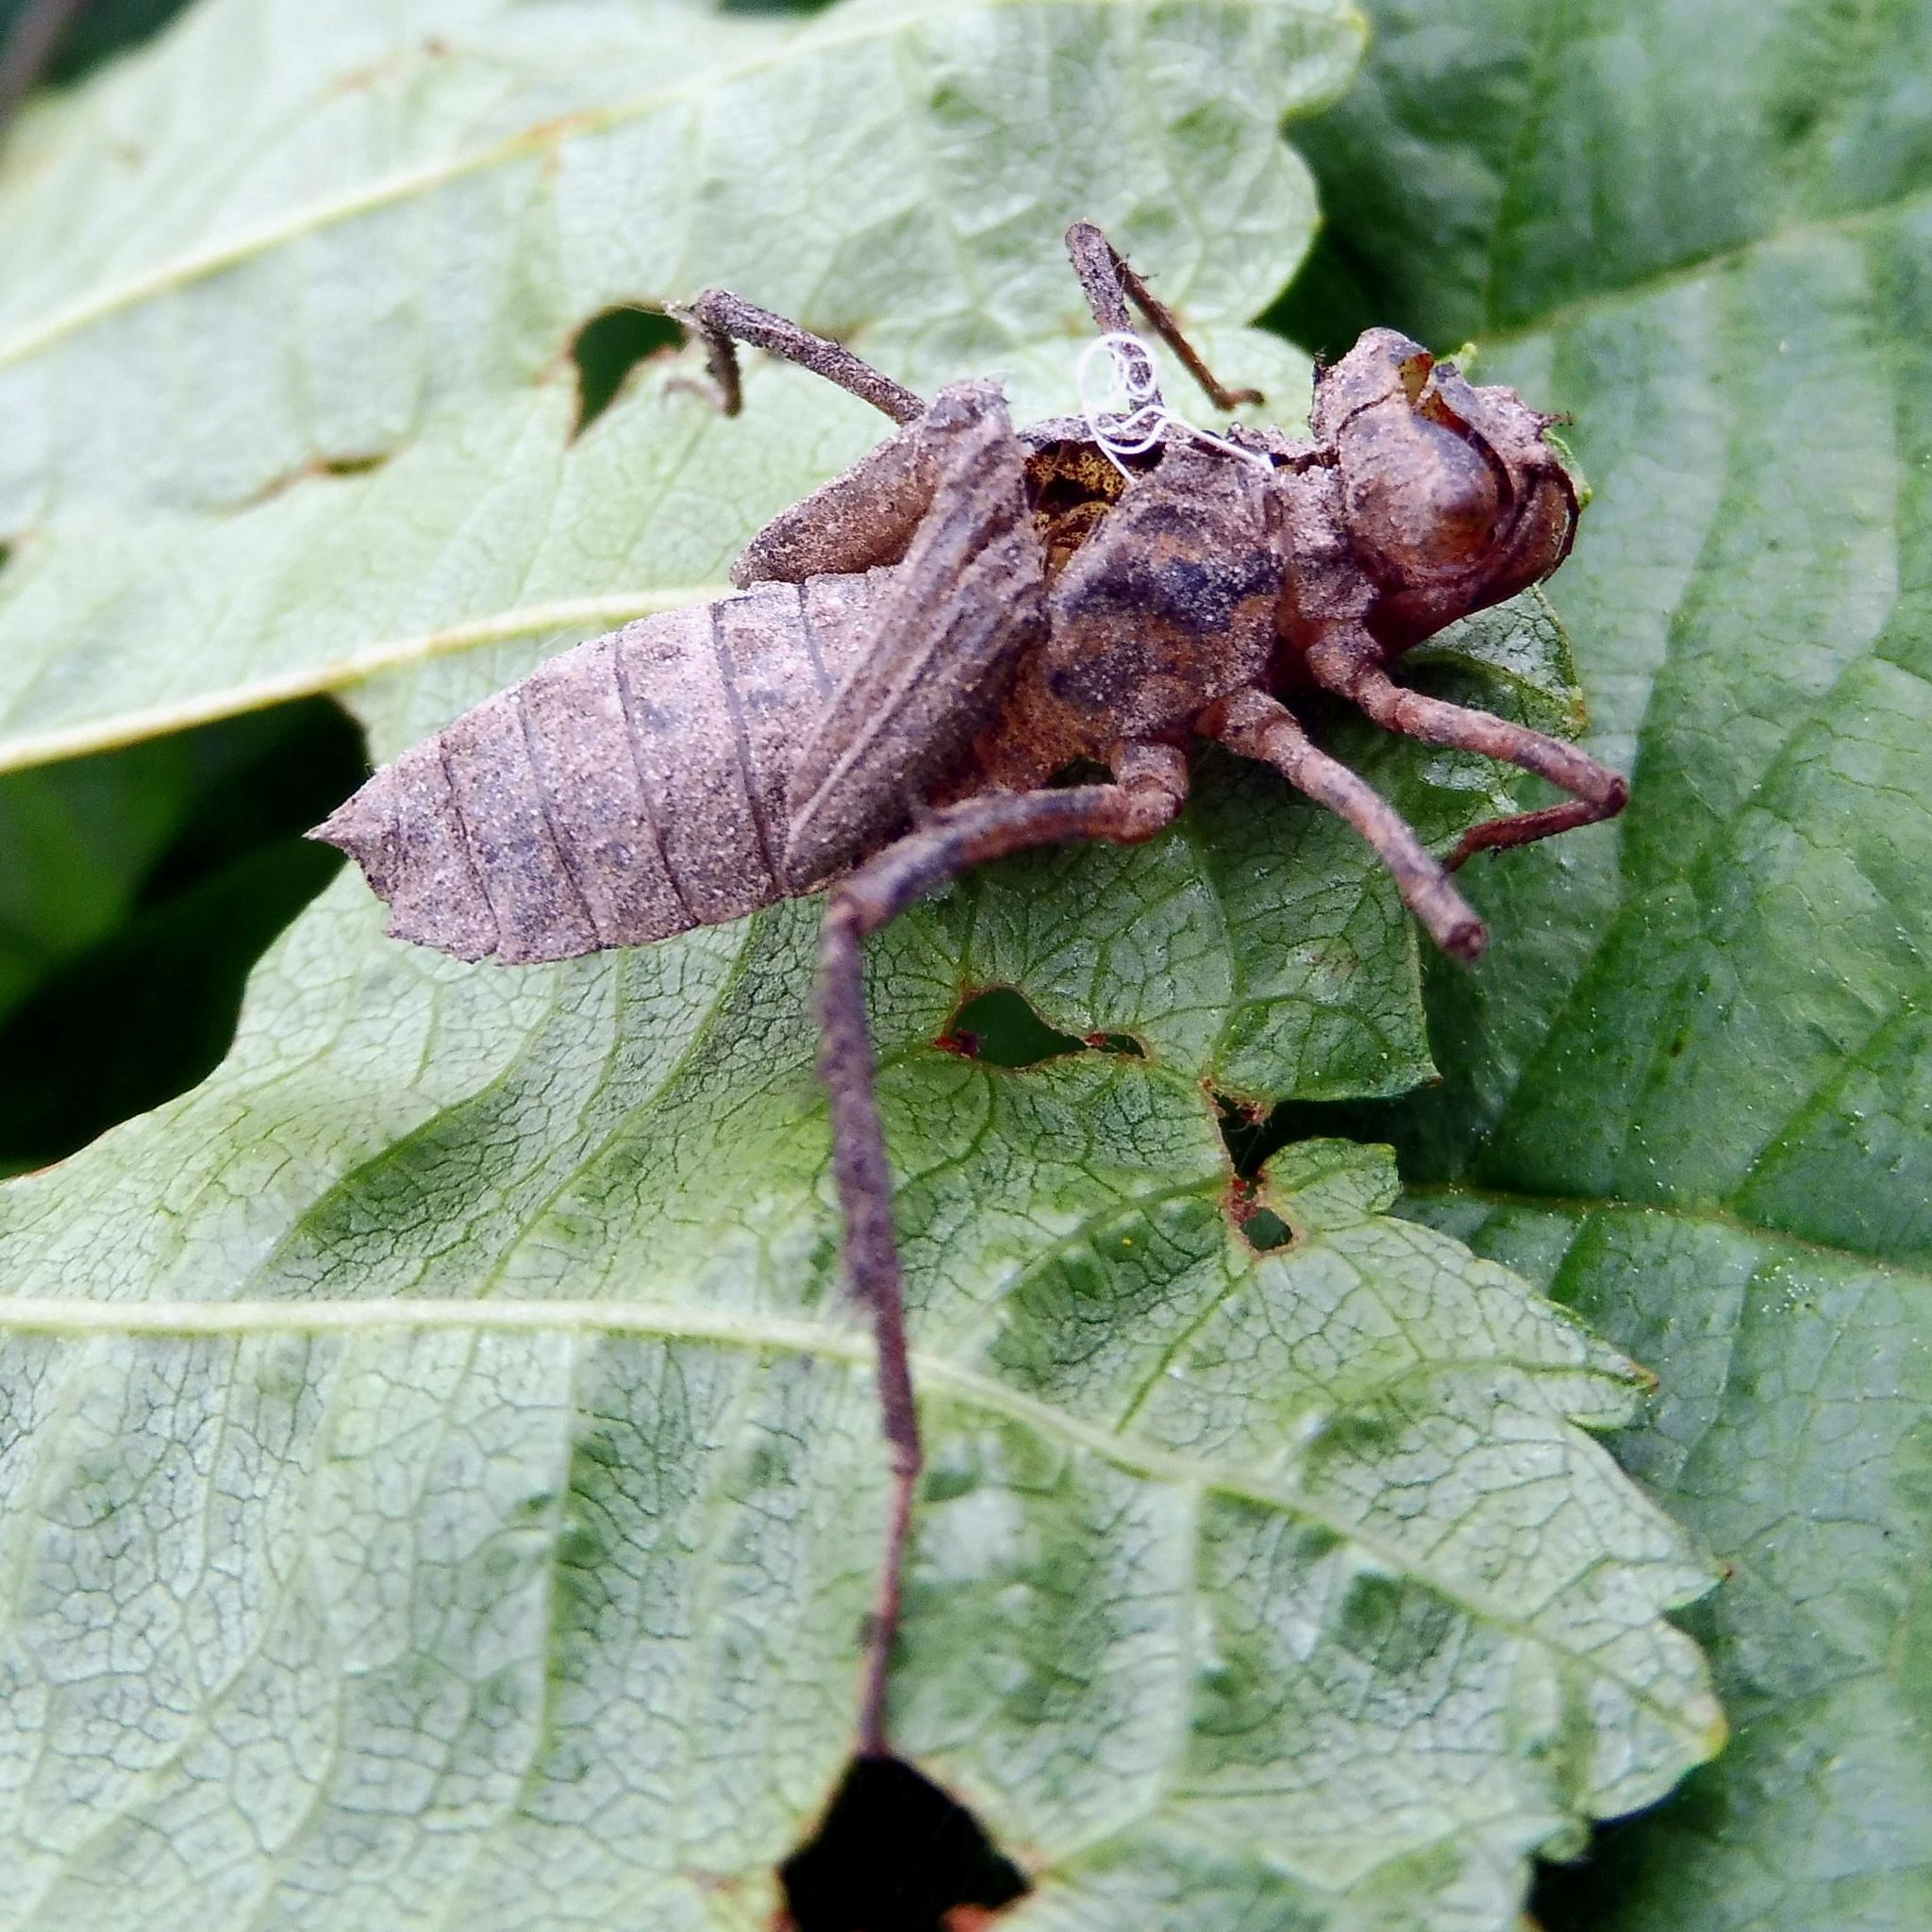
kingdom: Animalia
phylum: Arthropoda
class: Insecta
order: Odonata
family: Corduliidae
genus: Cordulia
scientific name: Cordulia aenea
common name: Downy emerald
